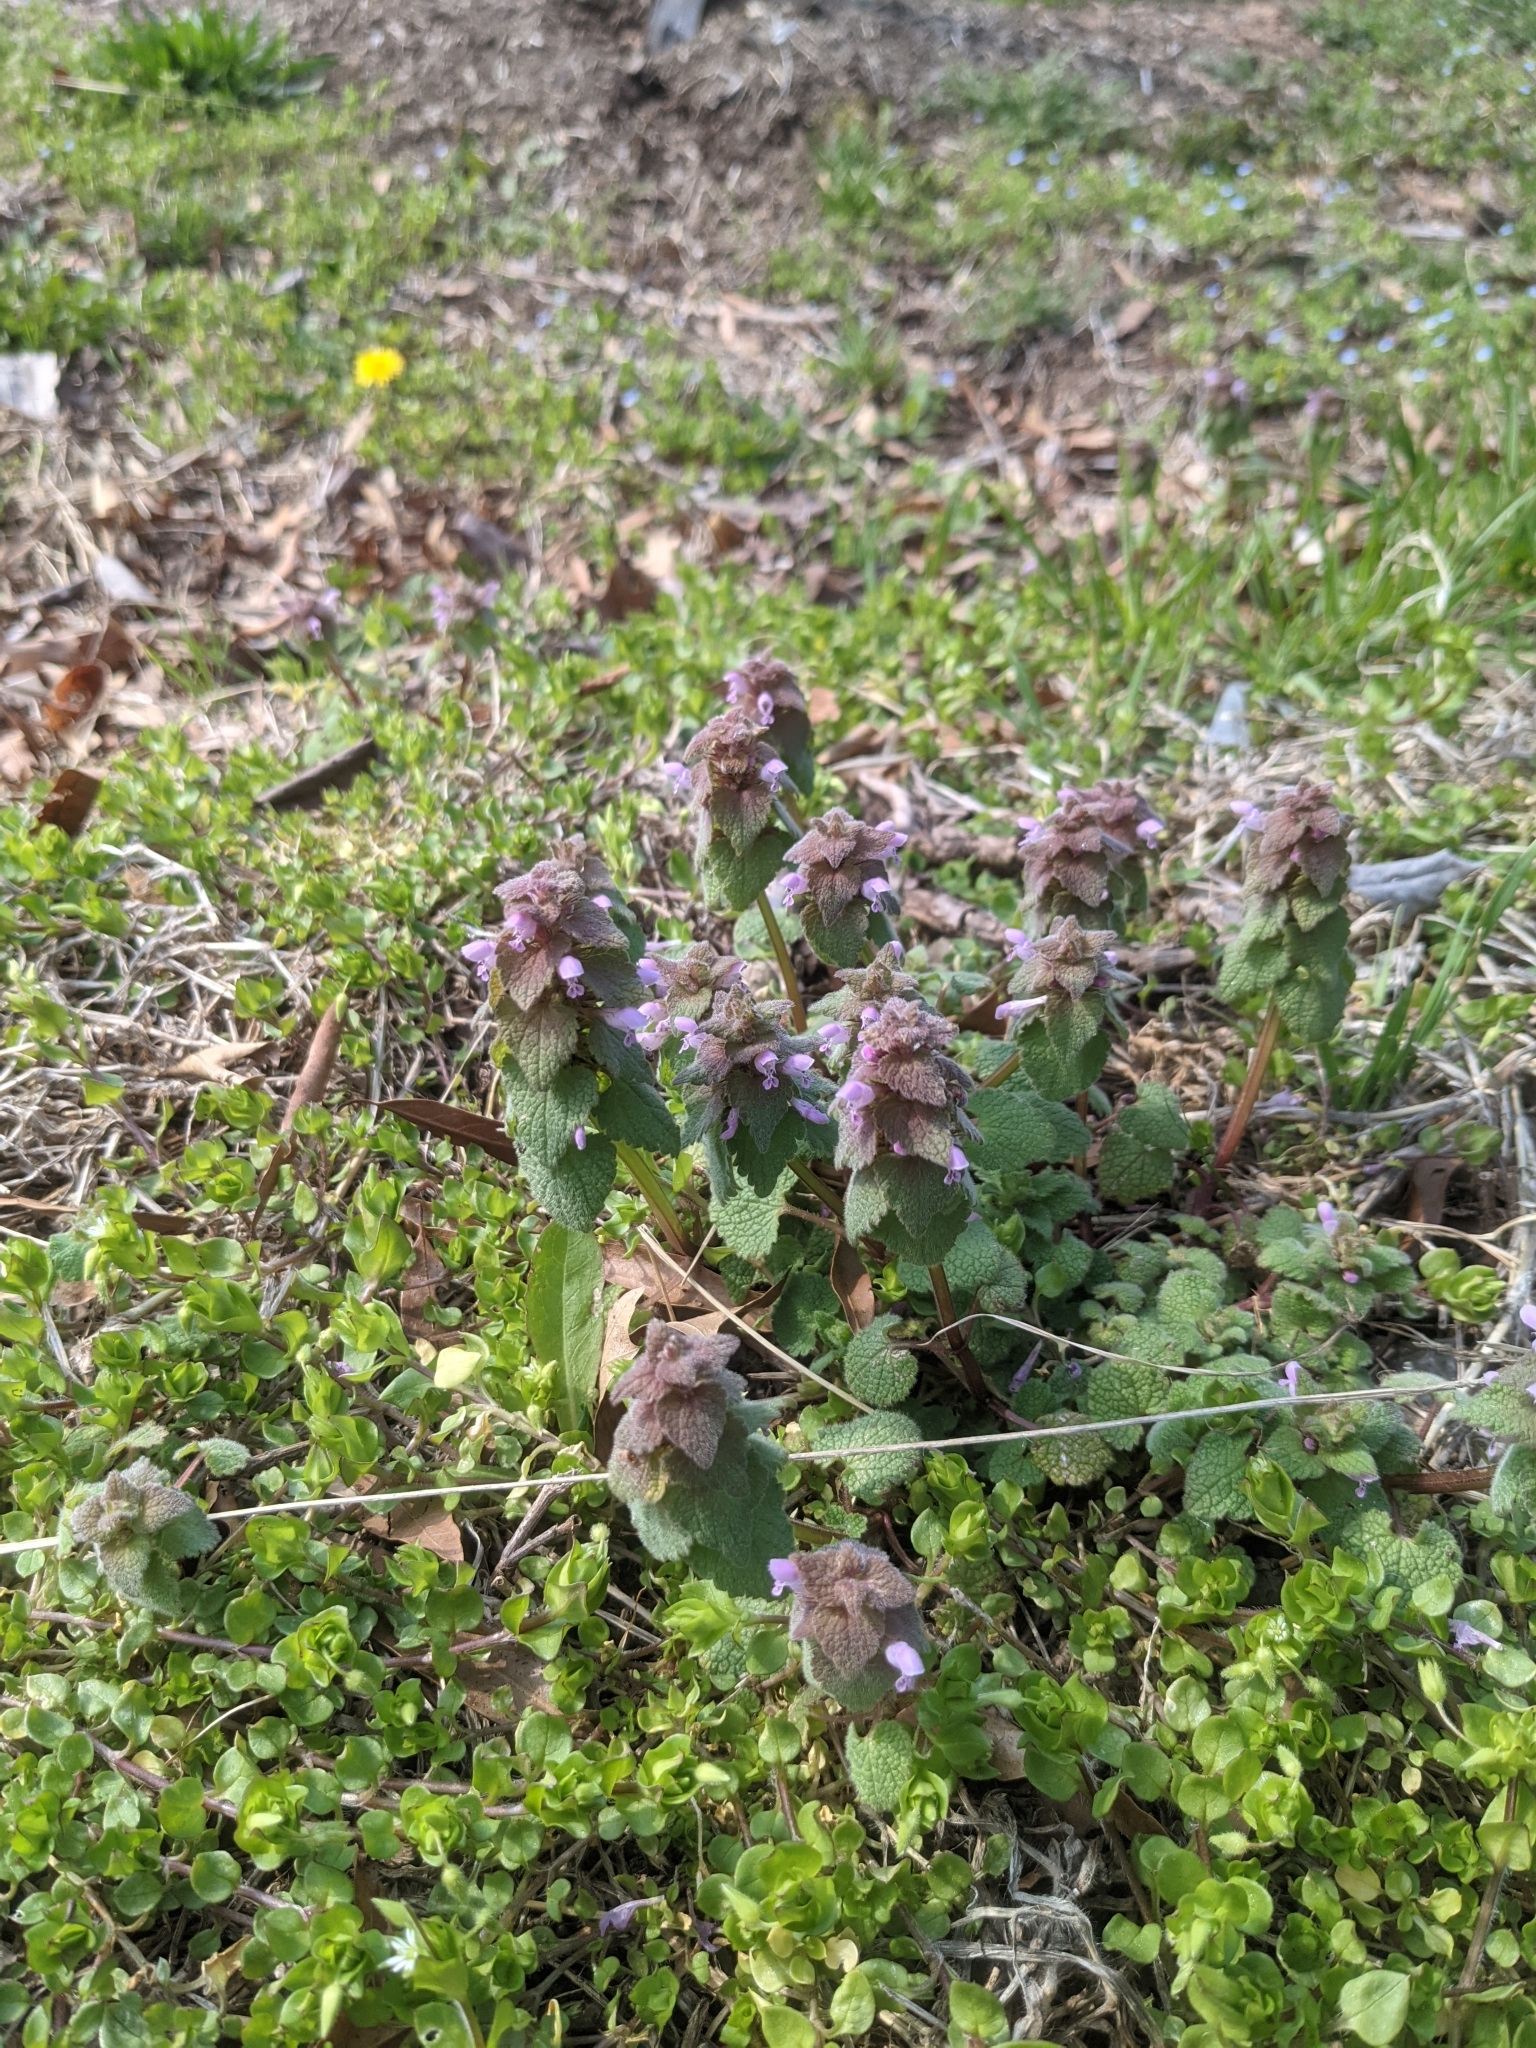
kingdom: Plantae
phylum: Tracheophyta
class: Magnoliopsida
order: Lamiales
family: Lamiaceae
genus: Lamium
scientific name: Lamium purpureum
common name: Red dead-nettle
